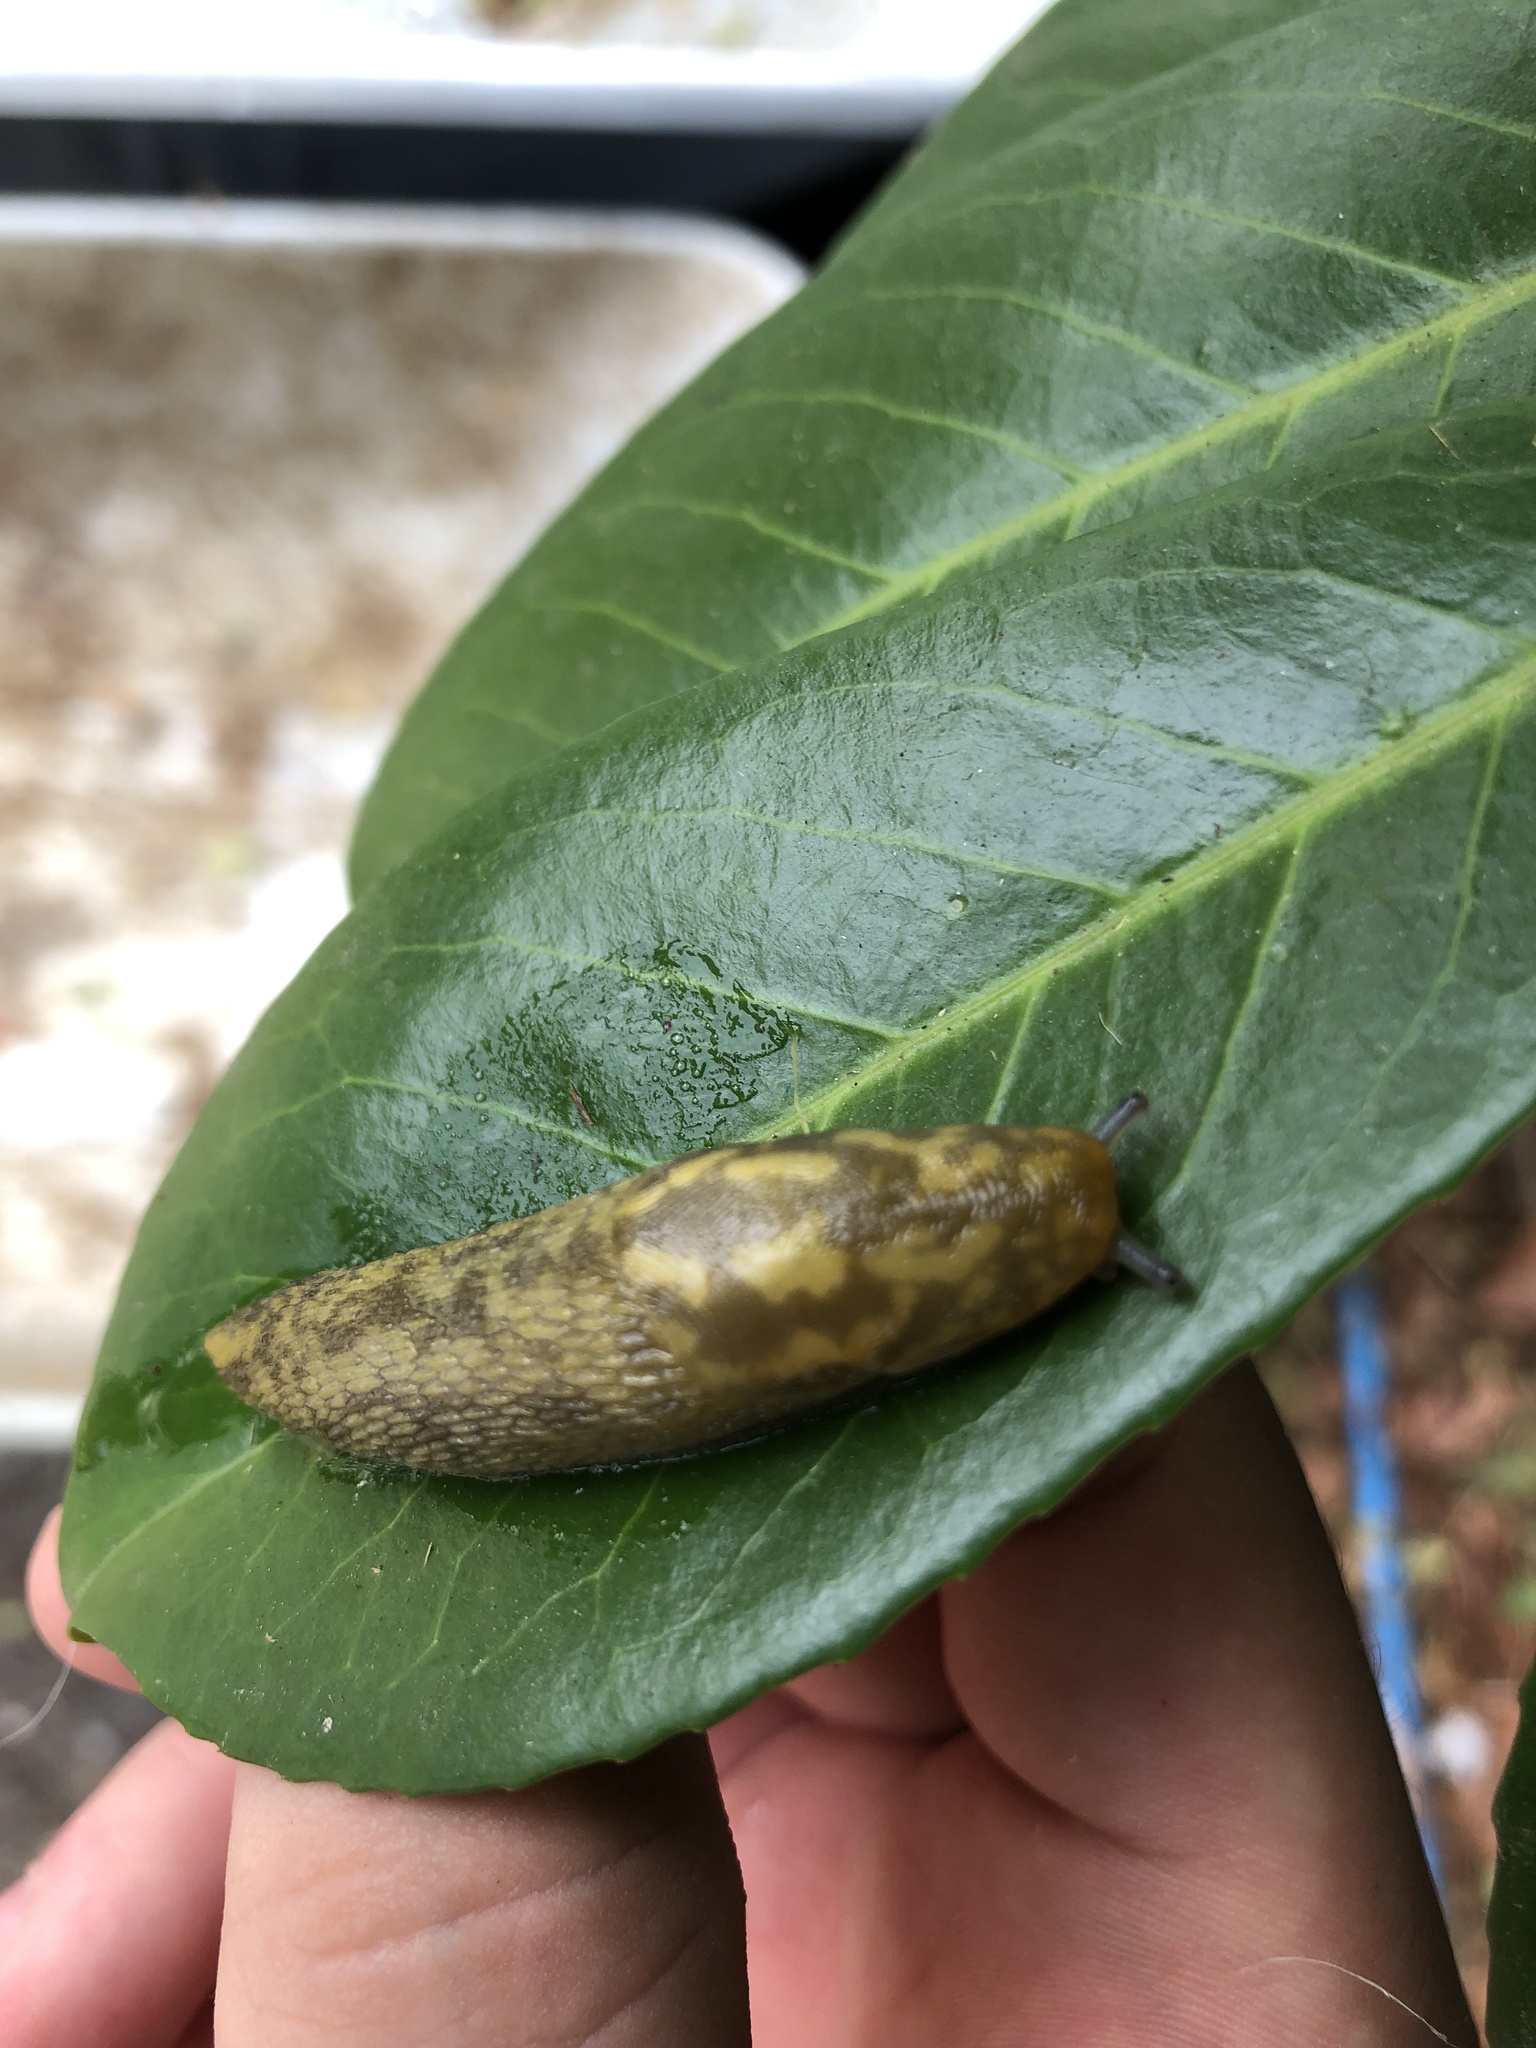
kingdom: Animalia
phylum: Mollusca
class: Gastropoda
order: Stylommatophora
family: Limacidae
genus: Limacus
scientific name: Limacus maculatus
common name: Irish yellow slug
